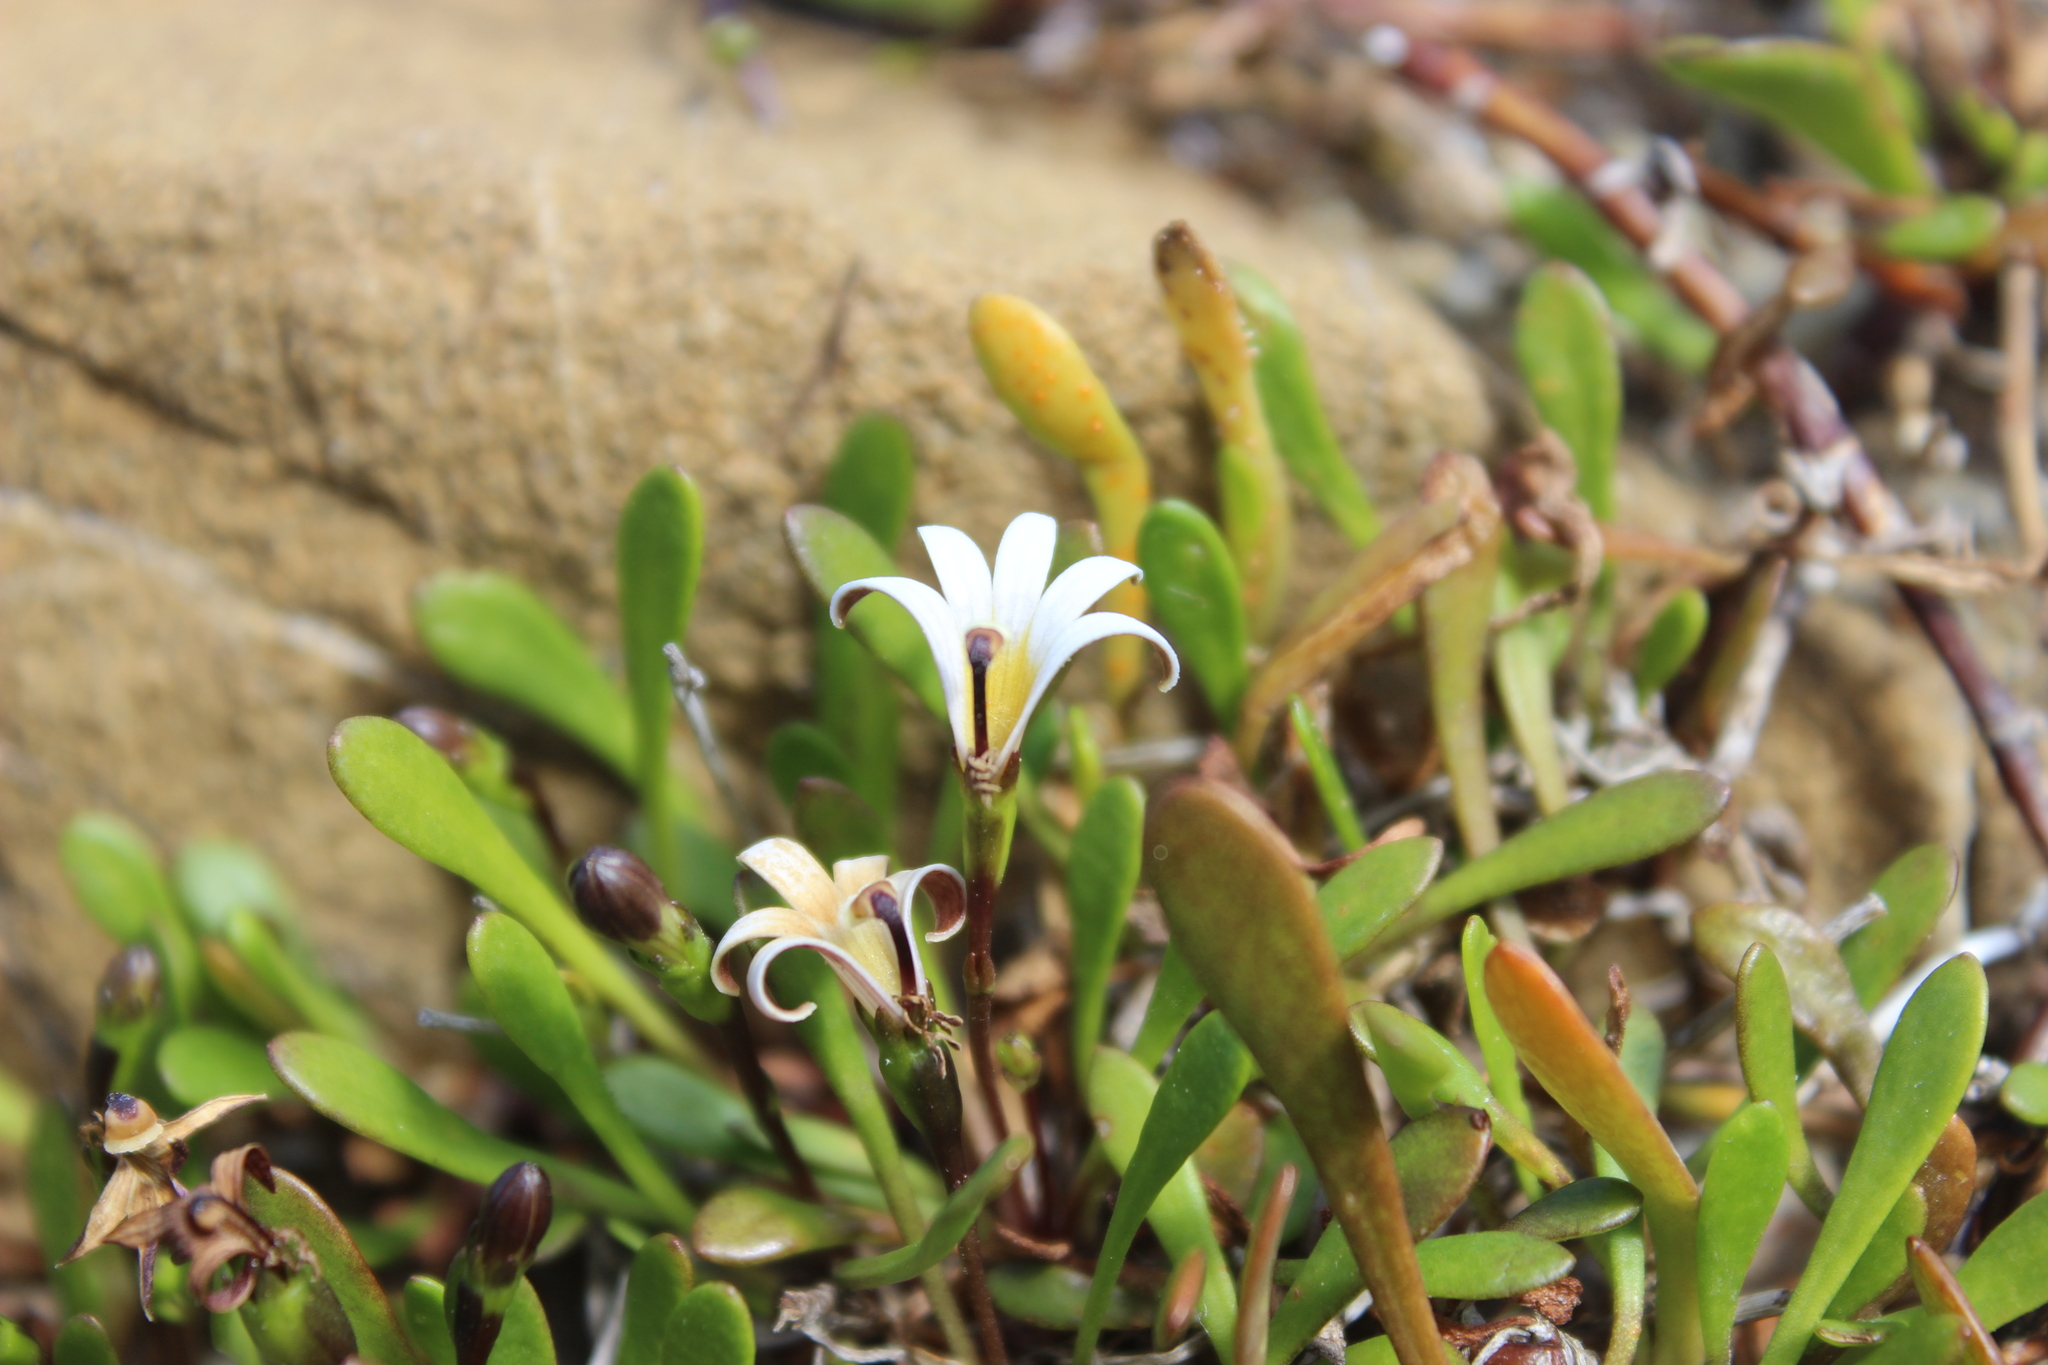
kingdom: Plantae
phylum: Tracheophyta
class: Magnoliopsida
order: Asterales
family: Goodeniaceae
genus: Goodenia
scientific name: Goodenia radicans
